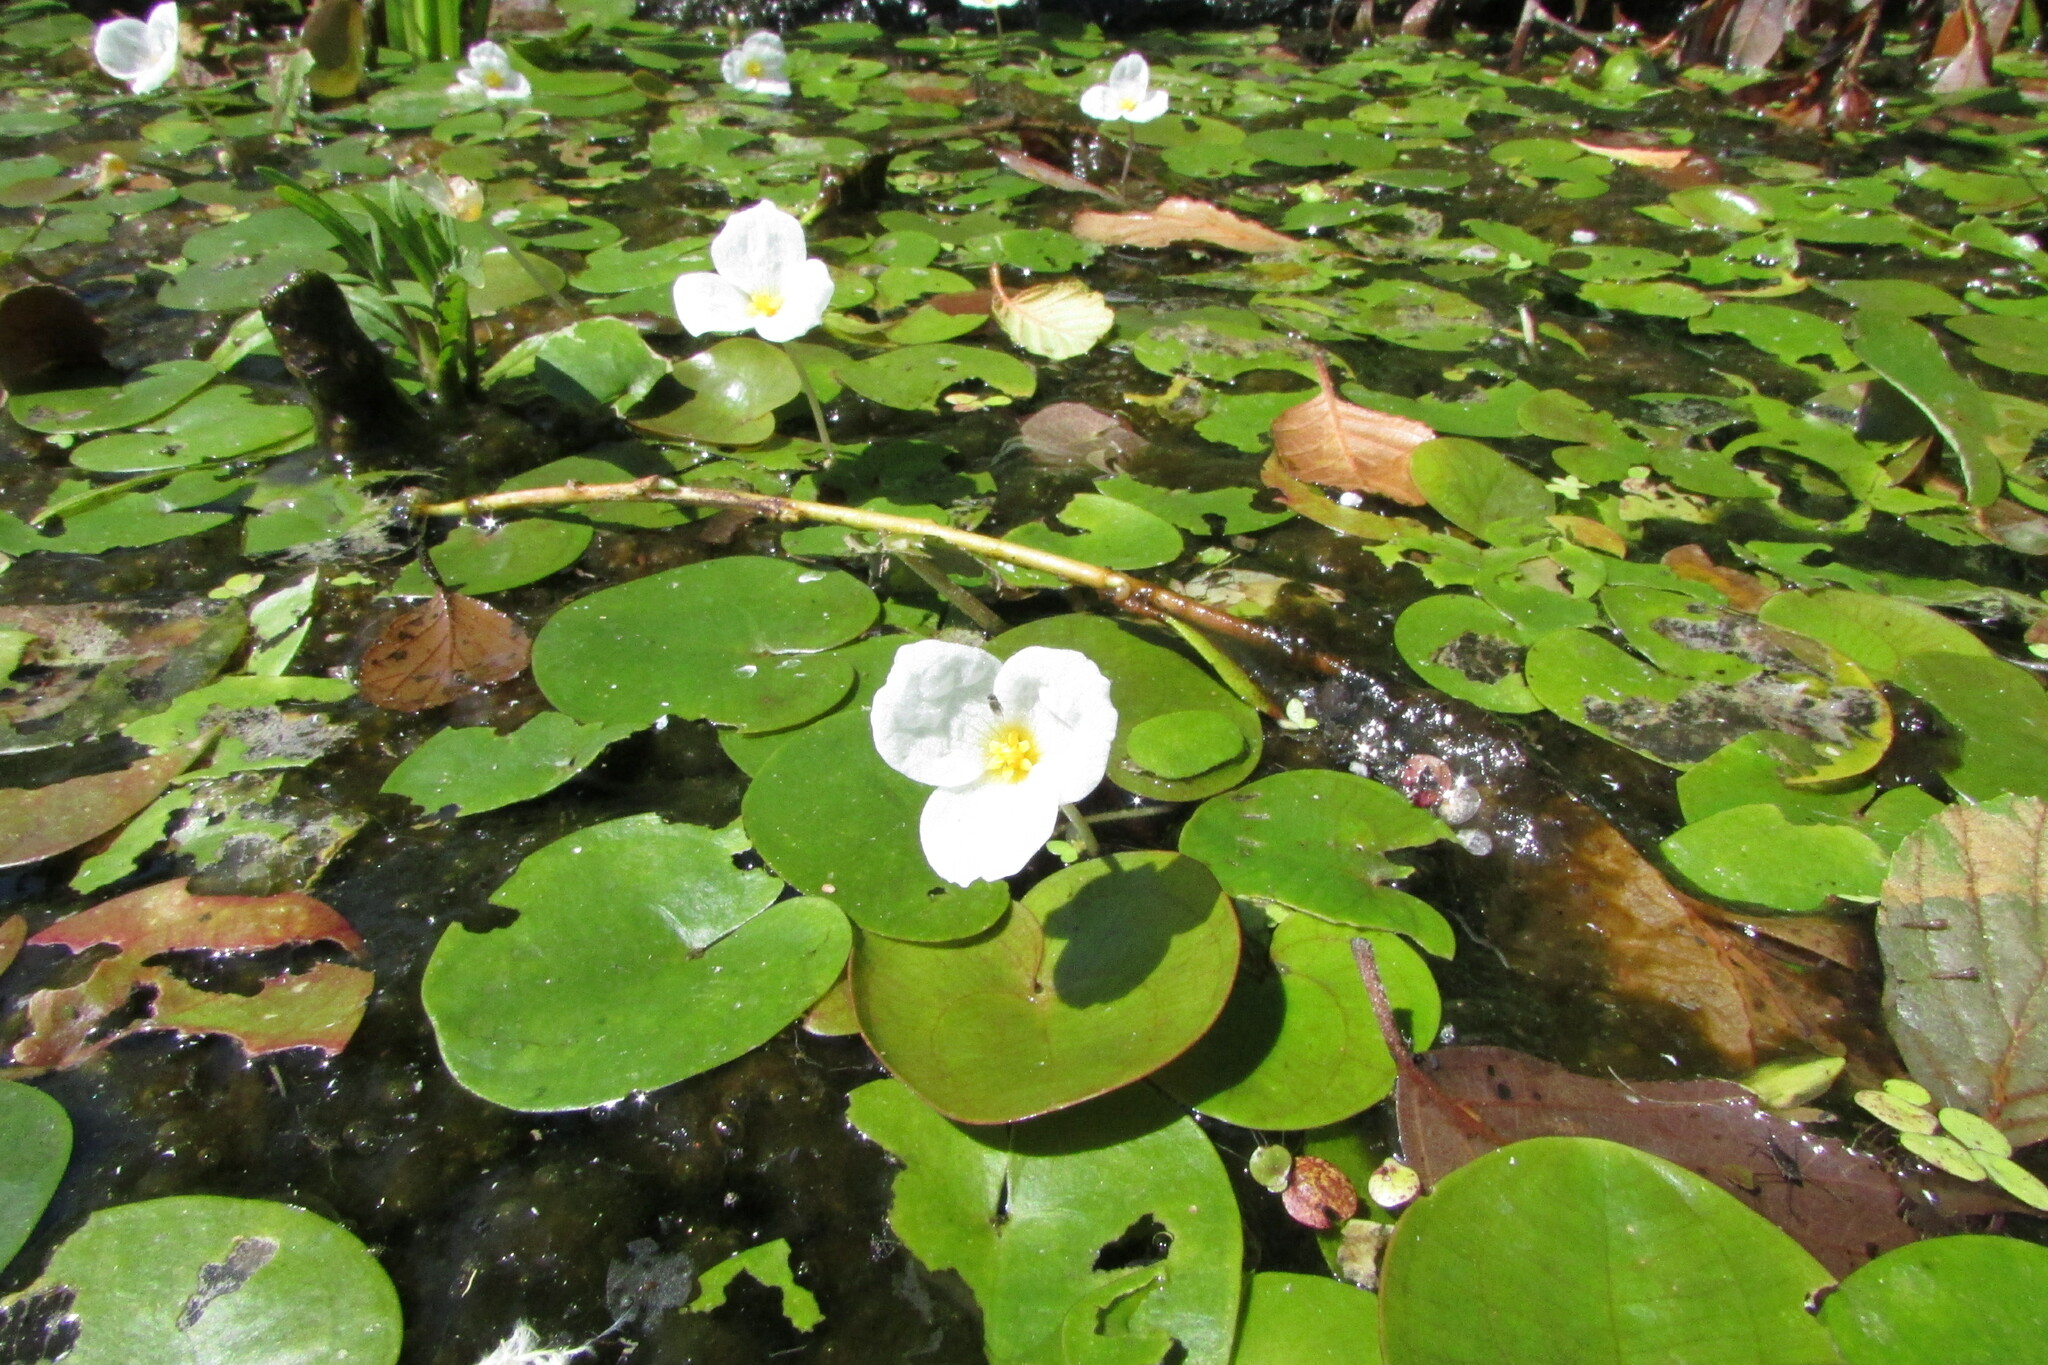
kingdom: Plantae
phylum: Tracheophyta
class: Liliopsida
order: Alismatales
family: Hydrocharitaceae
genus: Hydrocharis
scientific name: Hydrocharis morsus-ranae
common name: Frogbit
